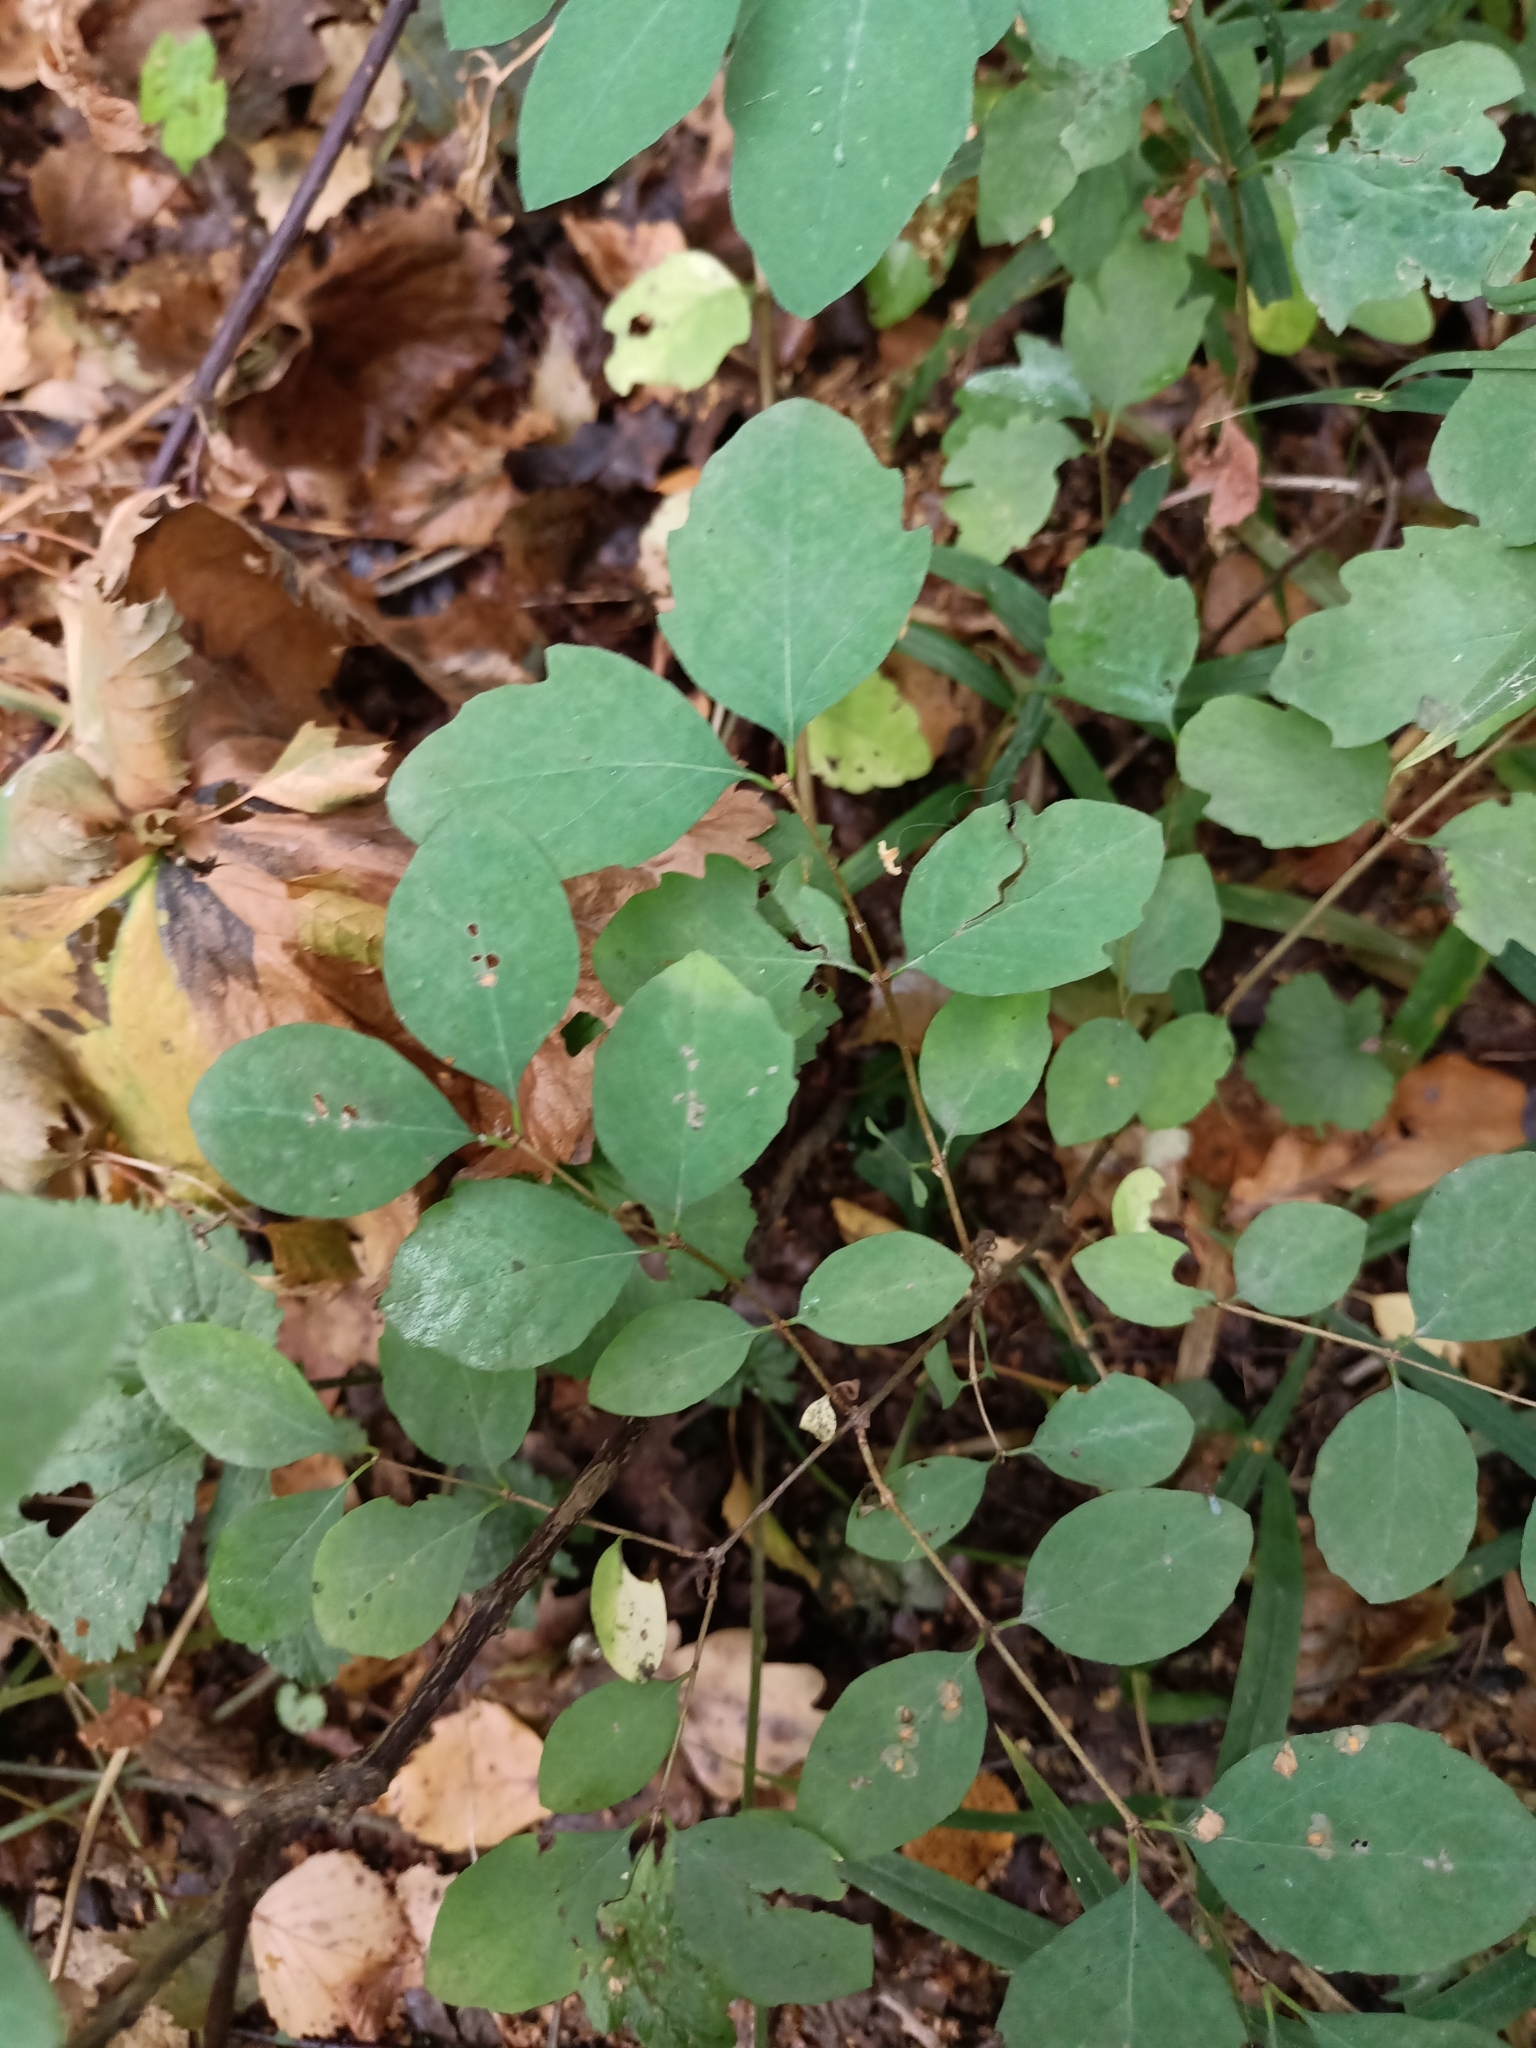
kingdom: Plantae
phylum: Tracheophyta
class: Magnoliopsida
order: Dipsacales
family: Caprifoliaceae
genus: Symphoricarpos
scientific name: Symphoricarpos albus
